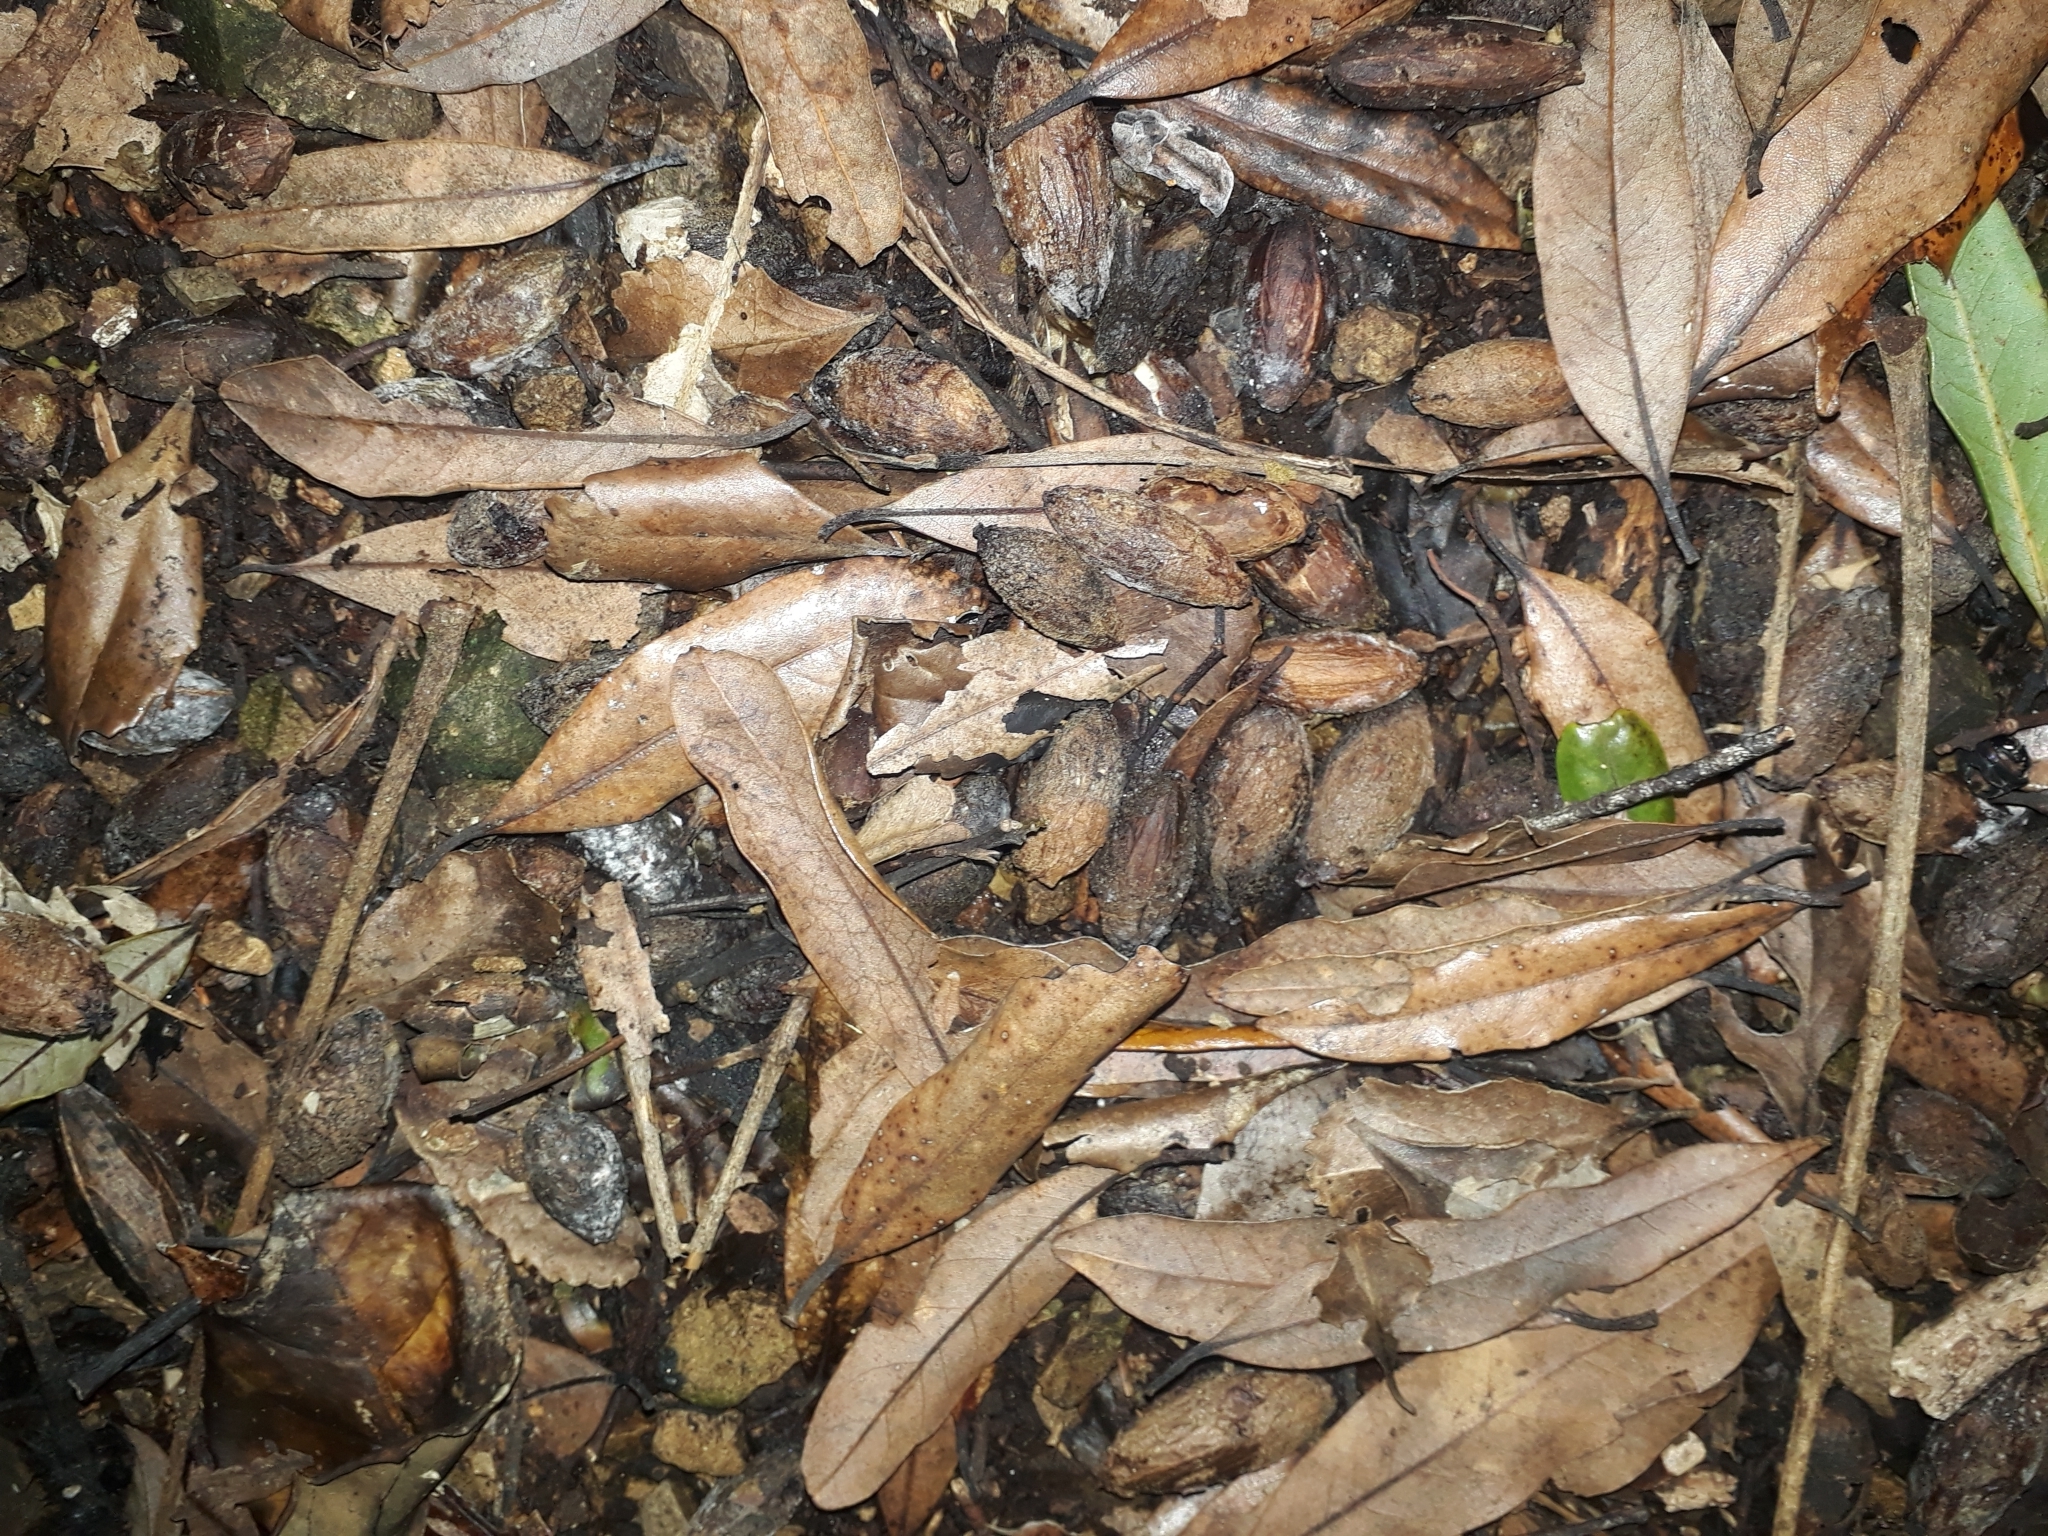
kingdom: Plantae
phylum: Tracheophyta
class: Magnoliopsida
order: Laurales
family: Lauraceae
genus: Beilschmiedia
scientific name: Beilschmiedia tawa
